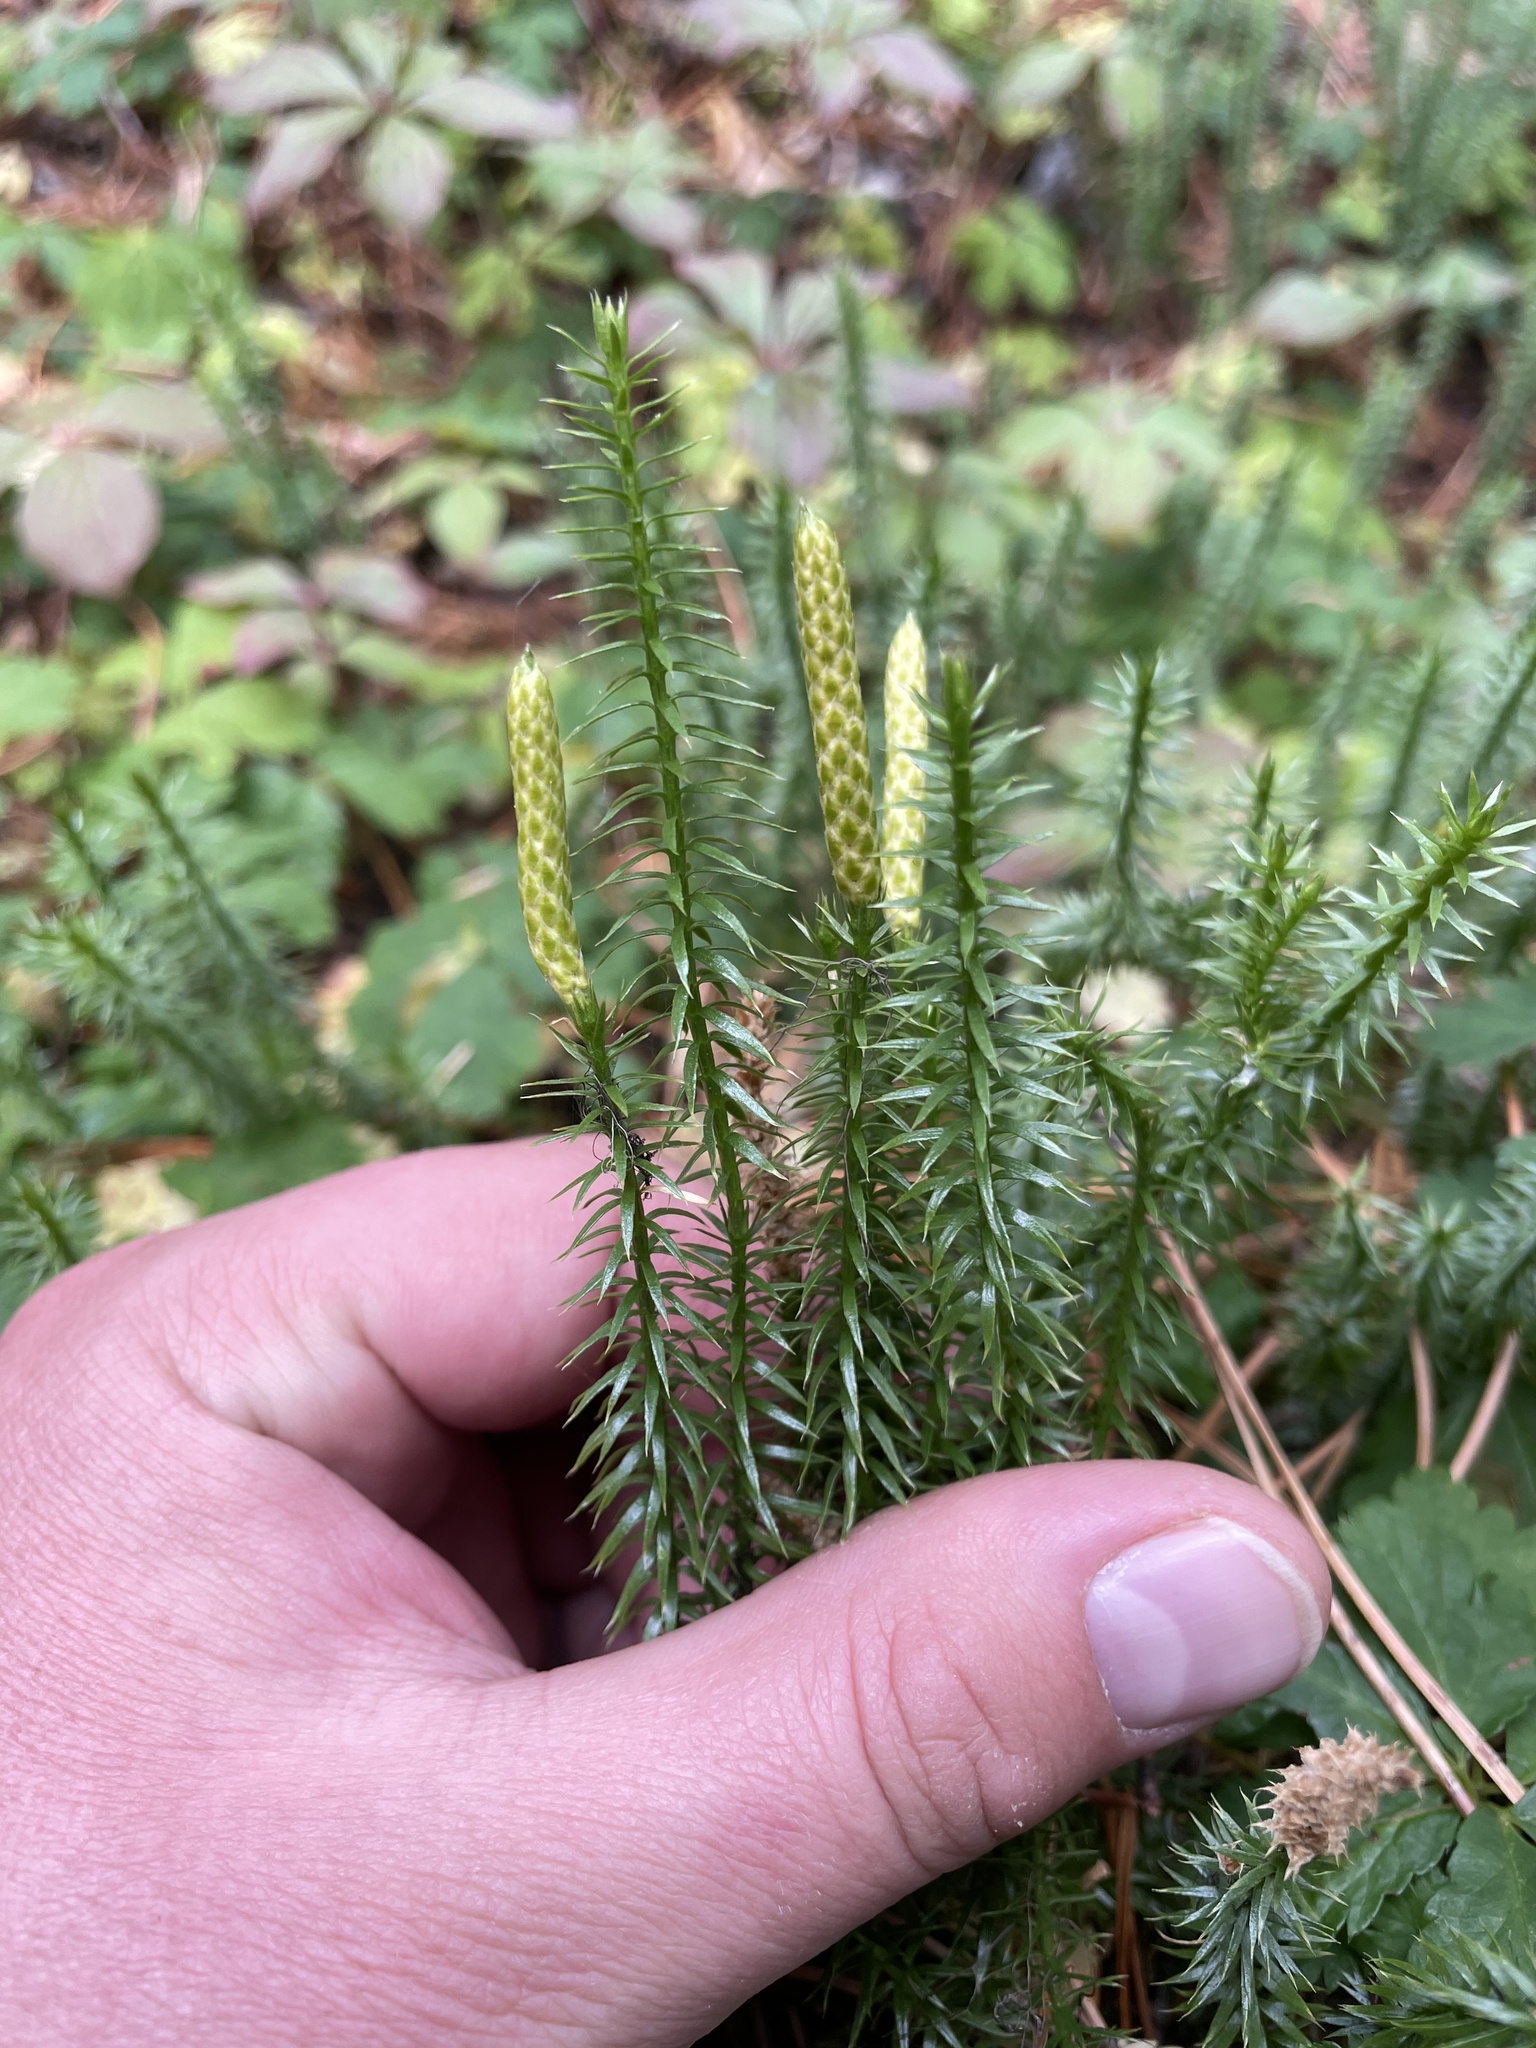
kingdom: Plantae
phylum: Tracheophyta
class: Lycopodiopsida
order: Lycopodiales
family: Lycopodiaceae
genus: Spinulum
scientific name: Spinulum annotinum
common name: Interrupted club-moss
